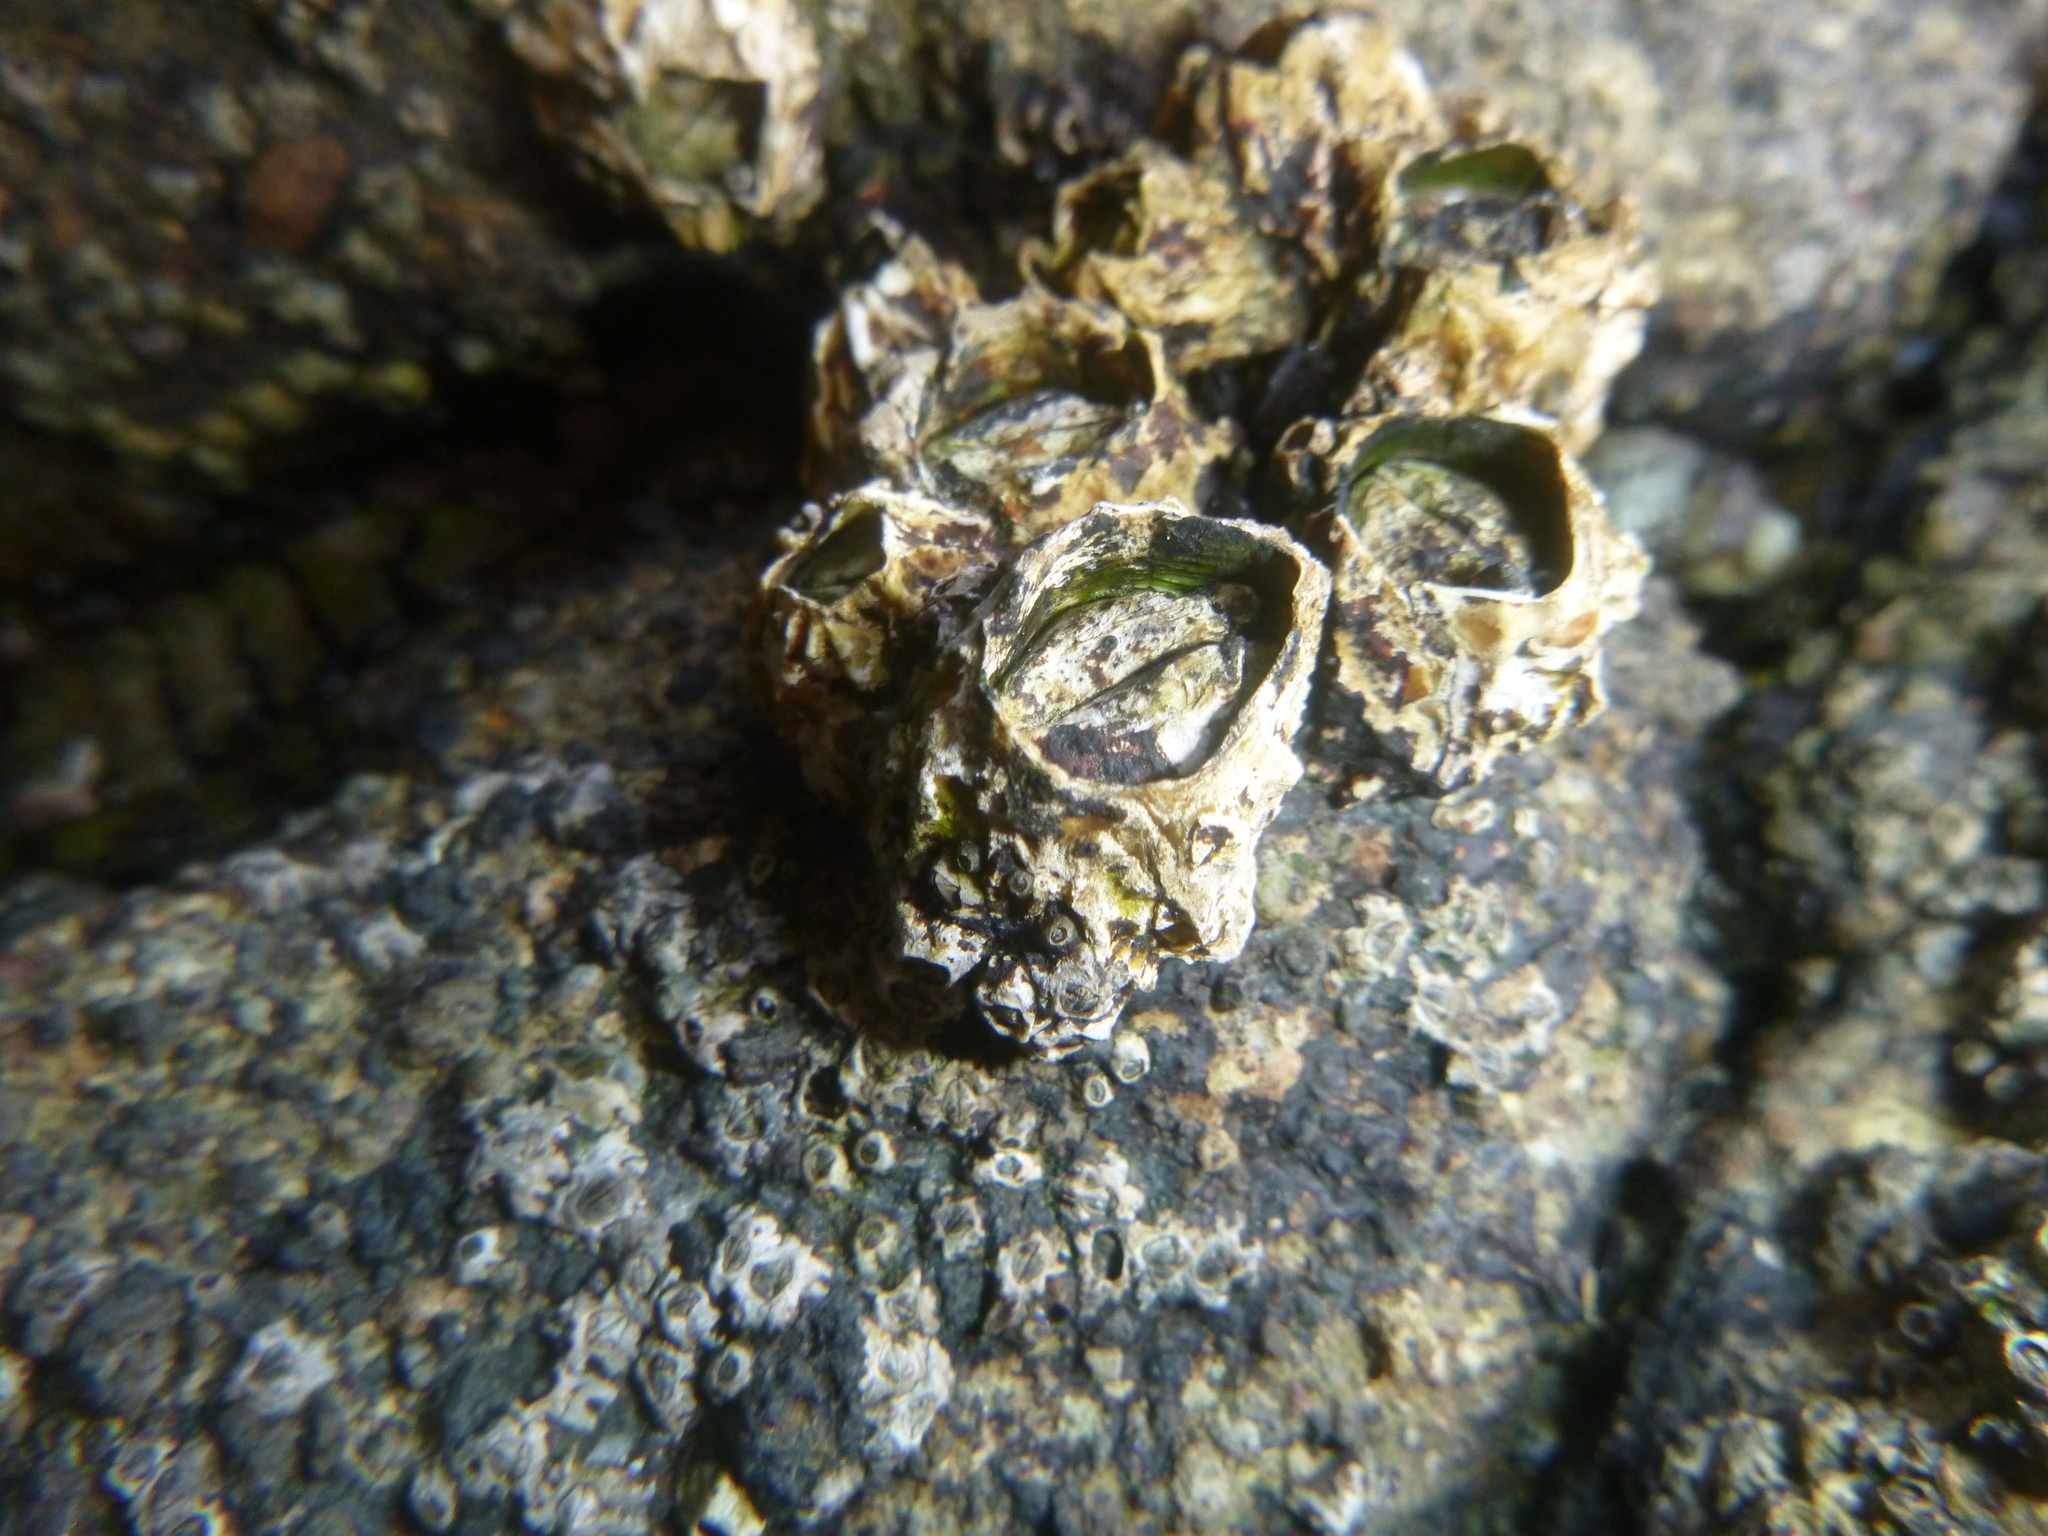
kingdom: Animalia
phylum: Arthropoda
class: Maxillopoda
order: Sessilia
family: Tetraclitidae
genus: Epopella
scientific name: Epopella plicata
